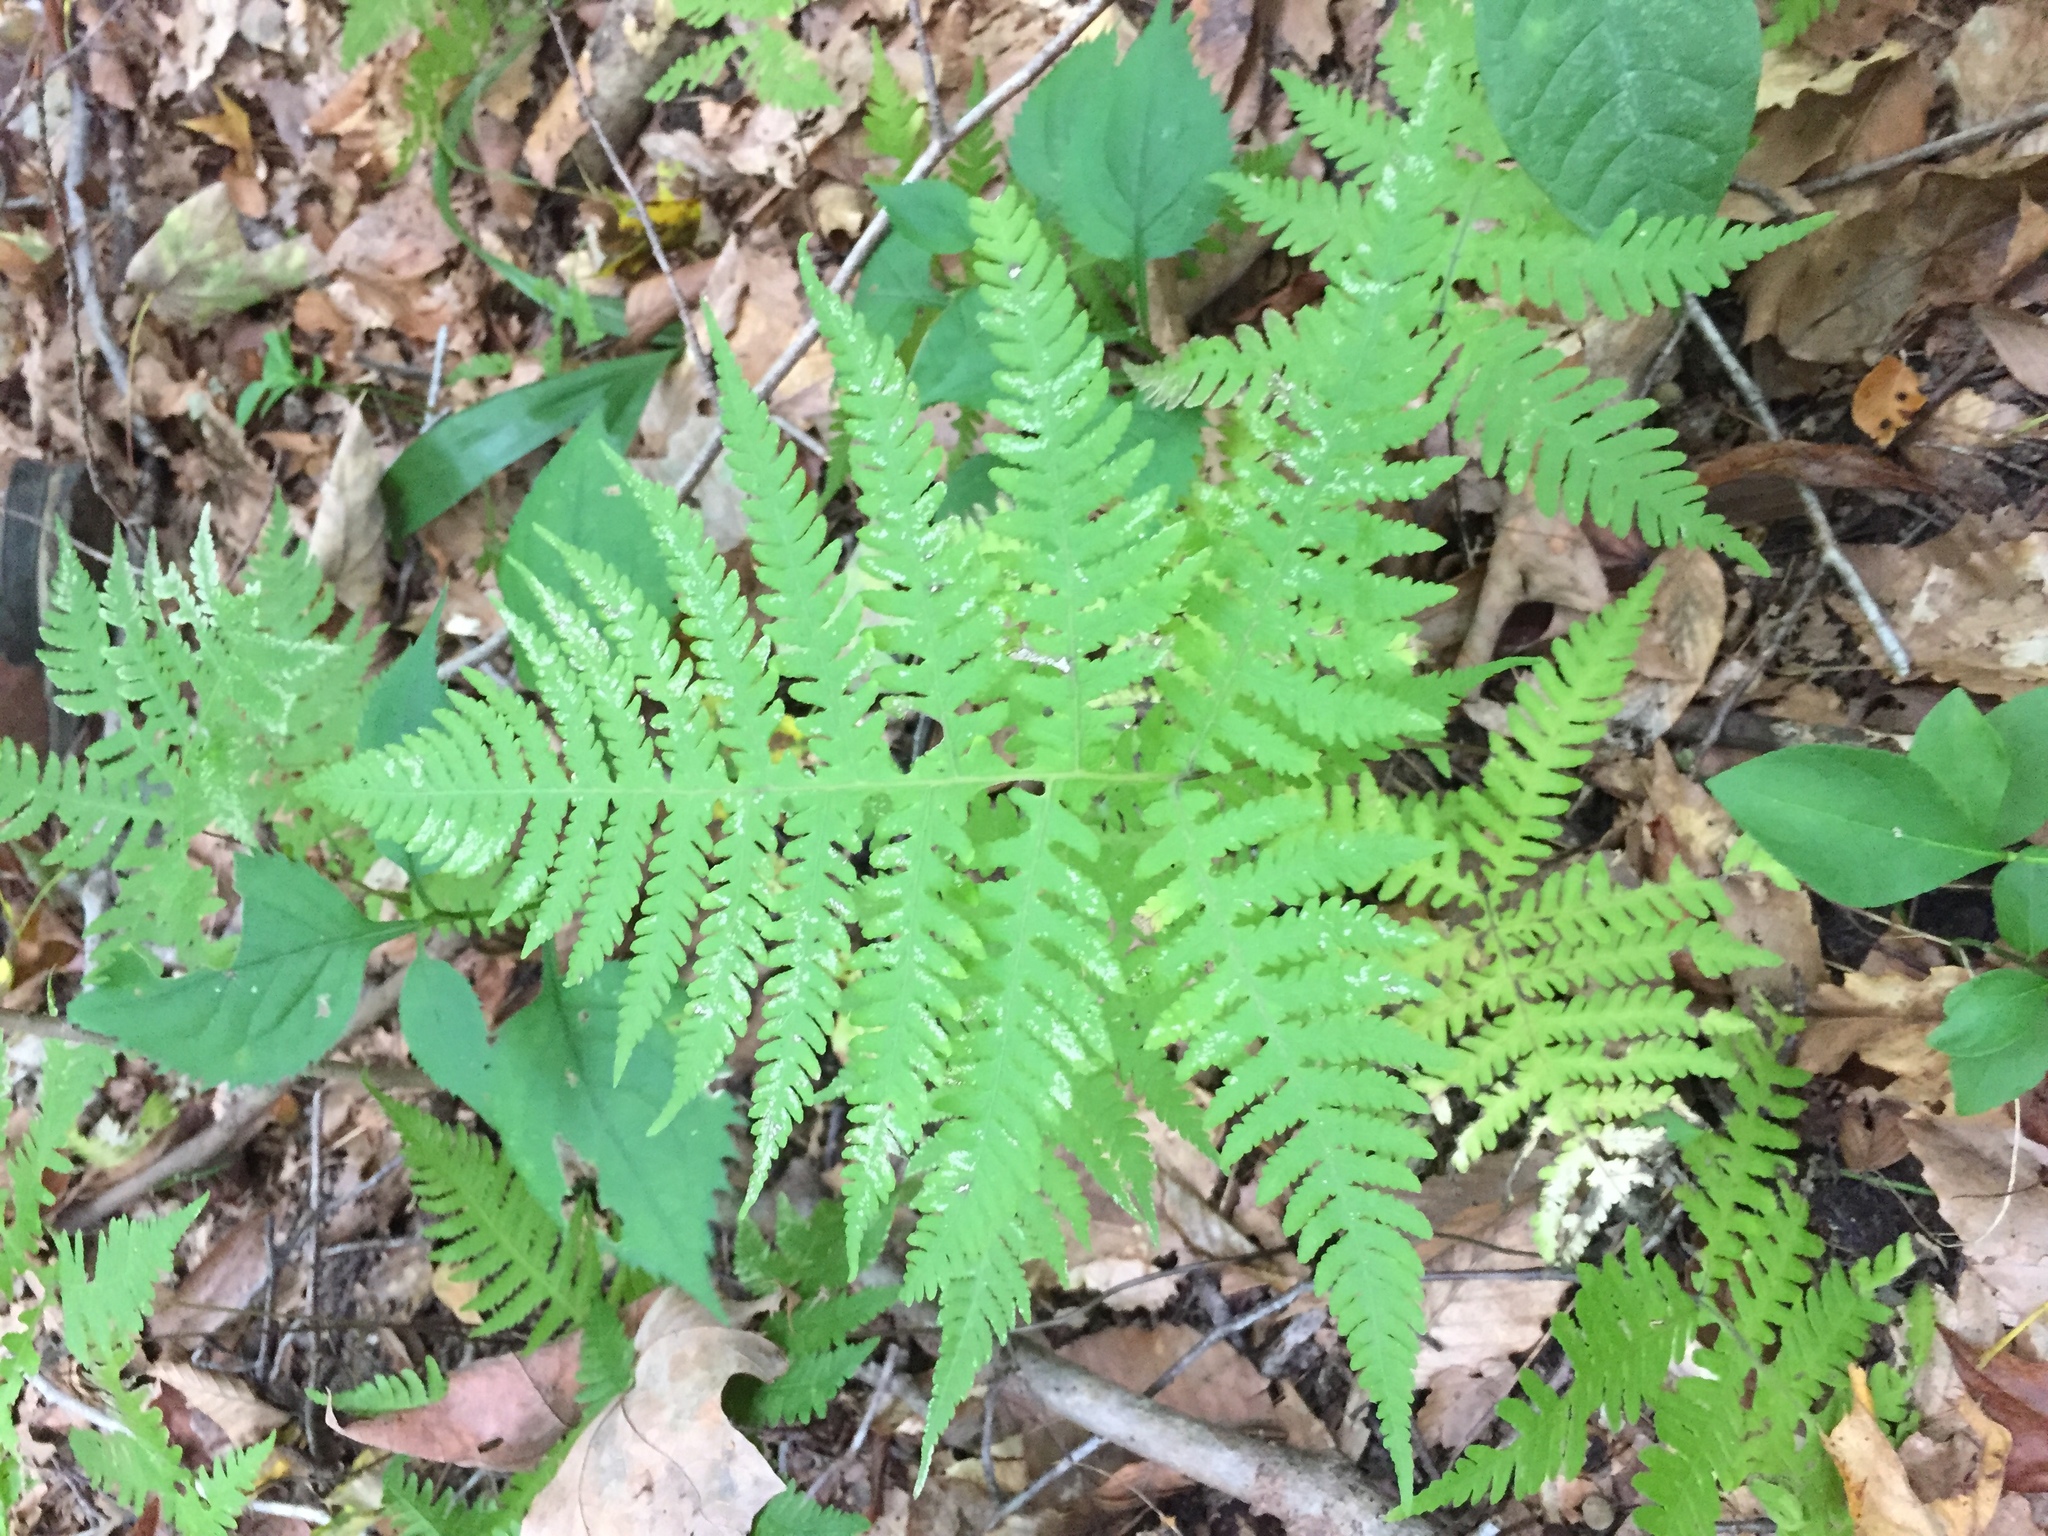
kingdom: Plantae
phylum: Tracheophyta
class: Polypodiopsida
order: Polypodiales
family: Thelypteridaceae
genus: Phegopteris
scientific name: Phegopteris hexagonoptera
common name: Broad beech fern
